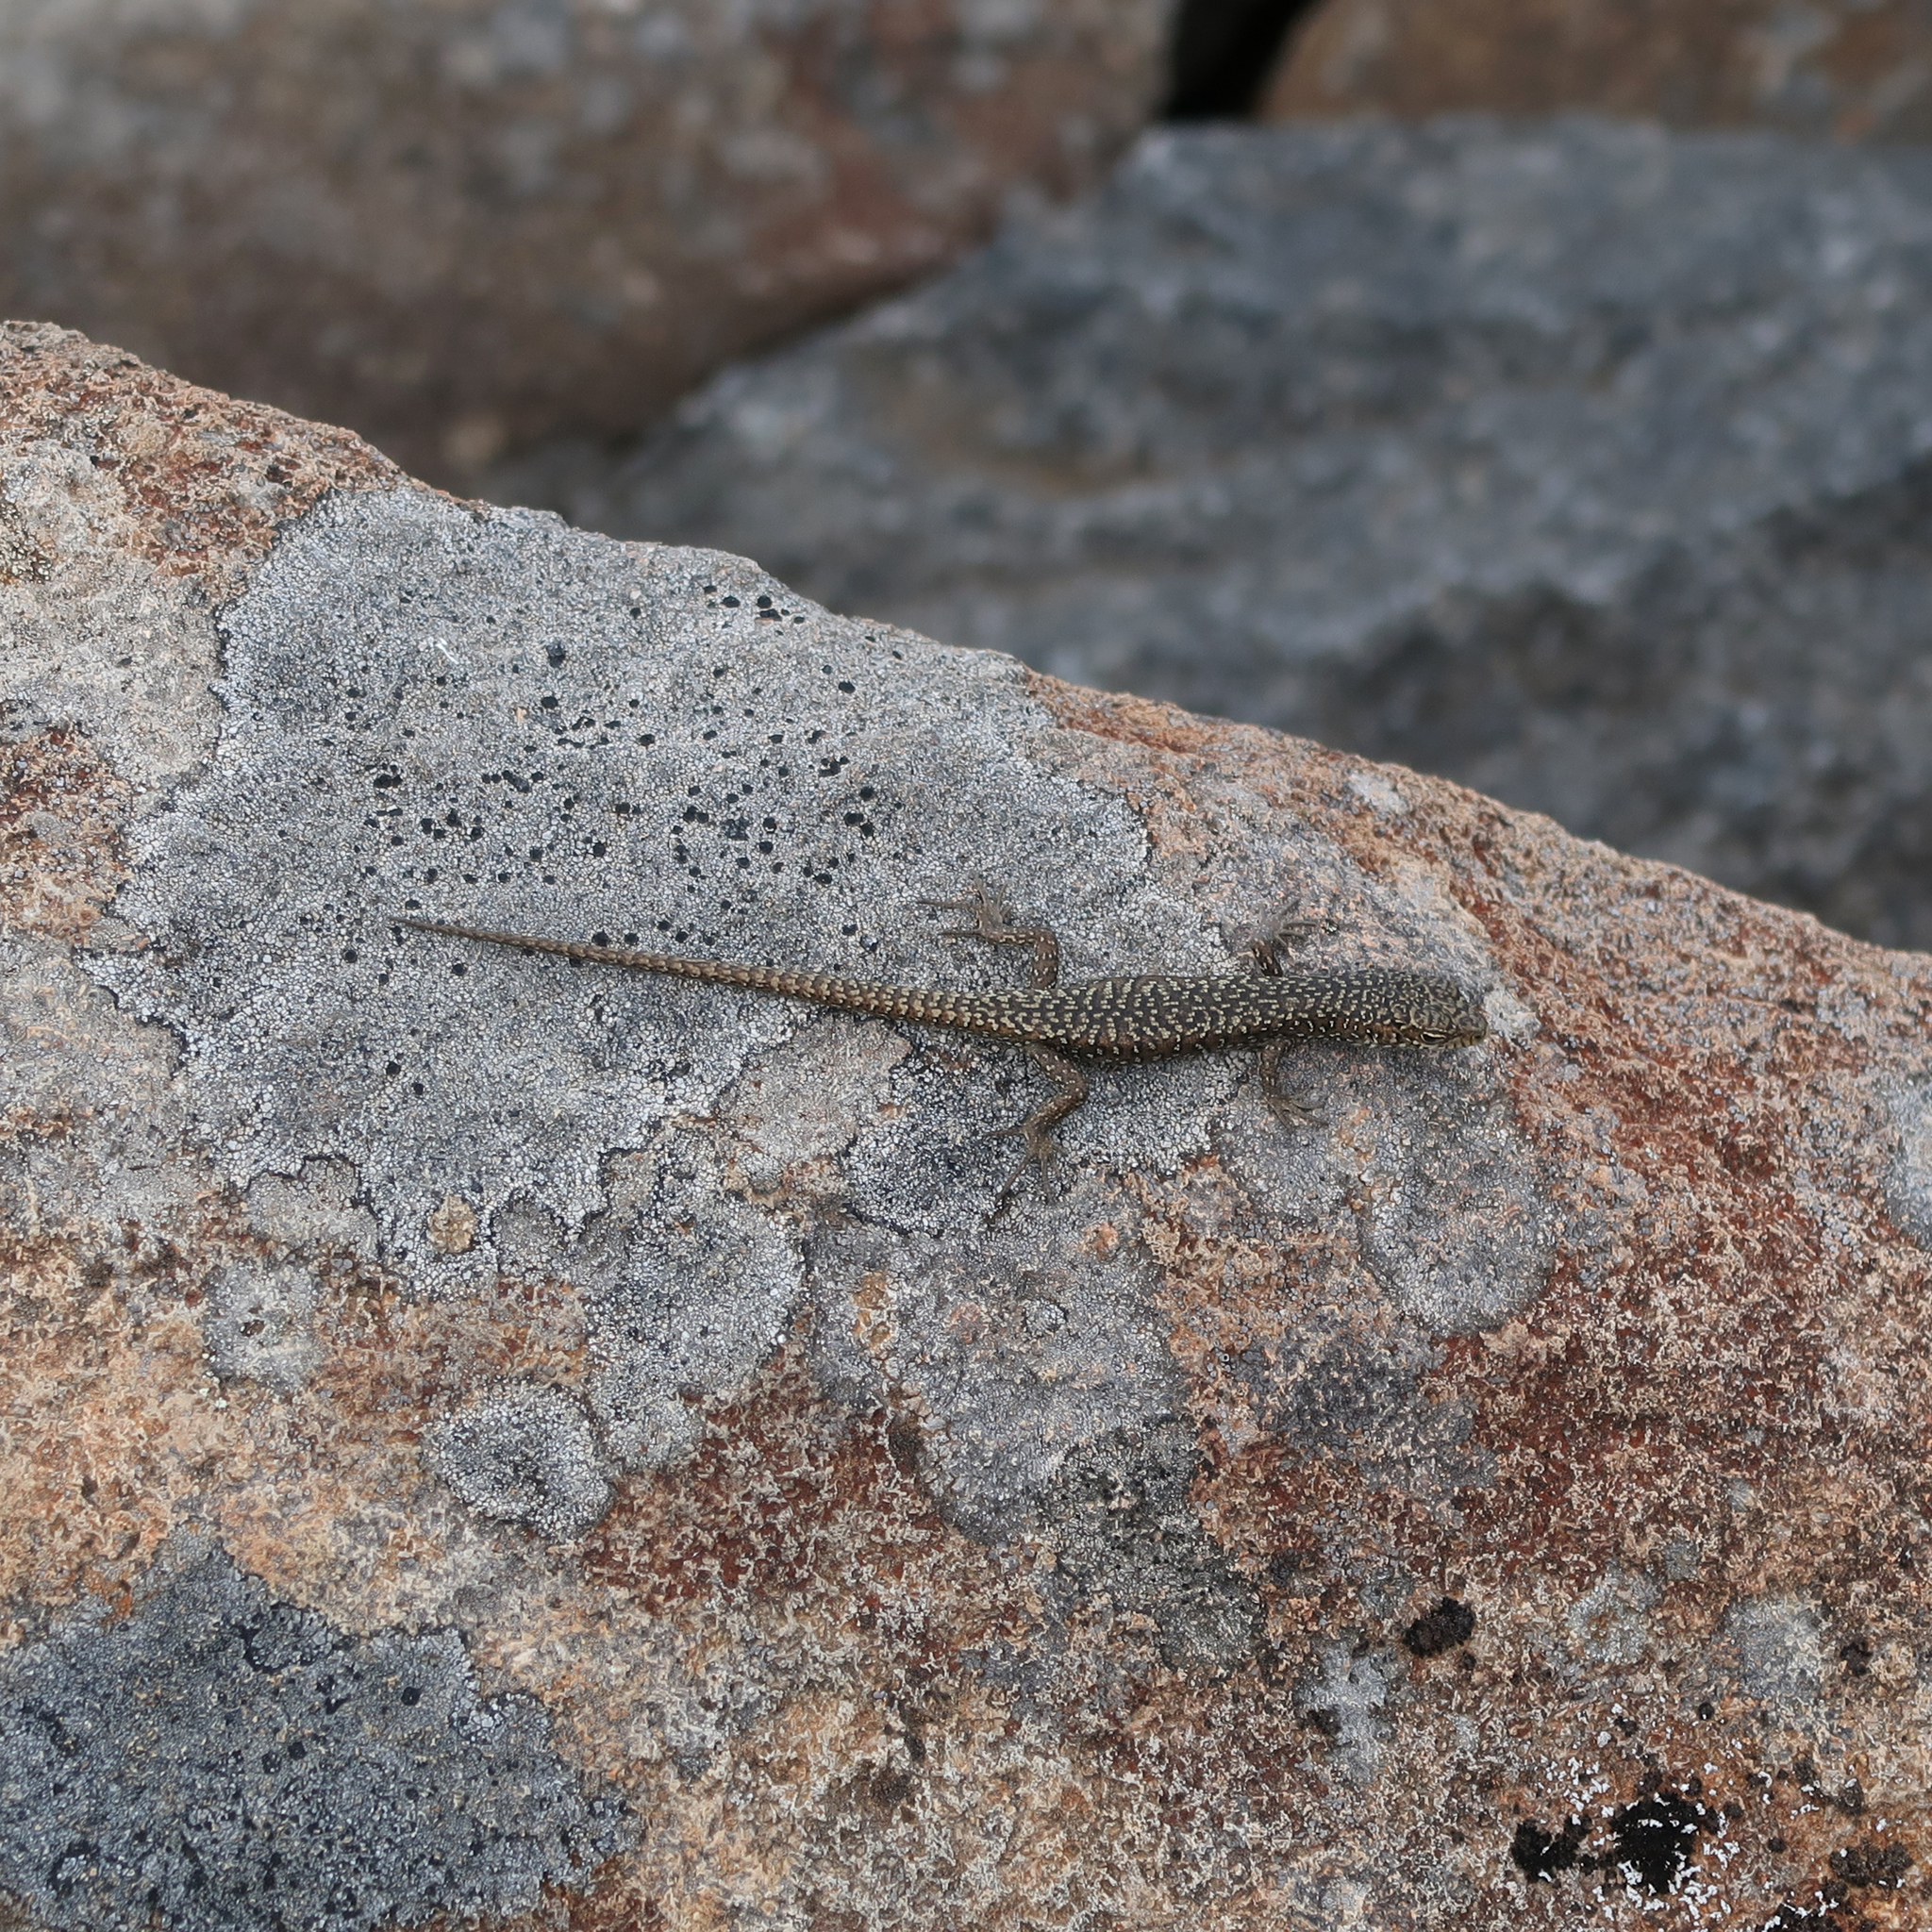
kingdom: Animalia
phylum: Chordata
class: Squamata
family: Scincidae
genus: Carinascincus
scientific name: Carinascincus ocellatus
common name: Ocellated cool-skink
